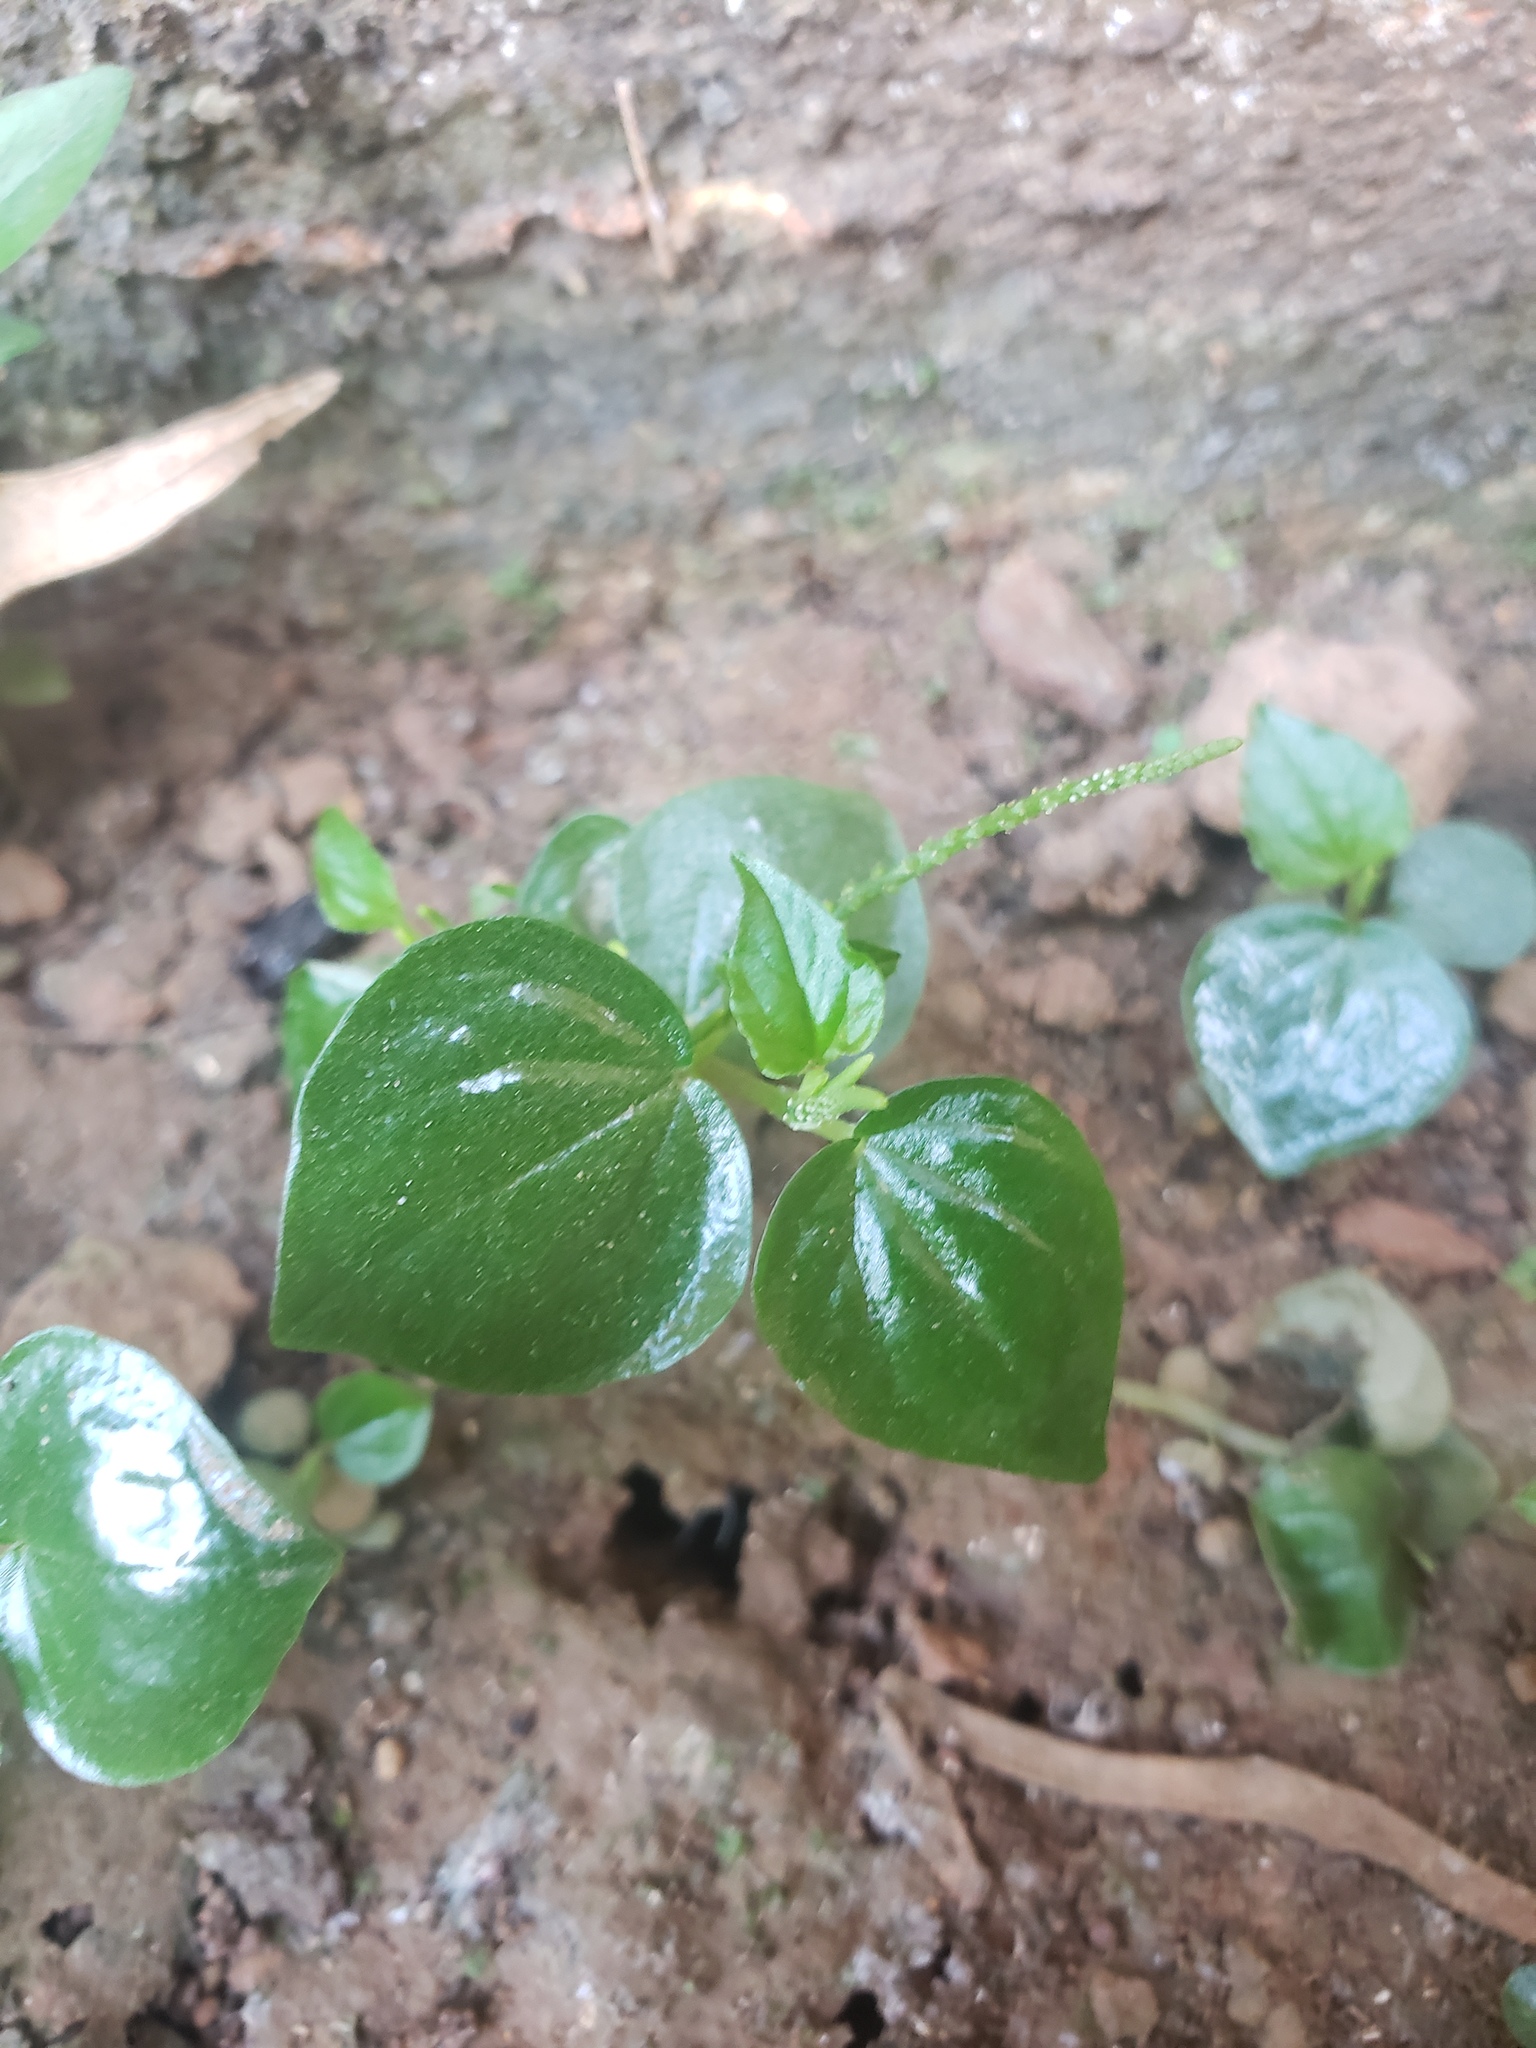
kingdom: Plantae
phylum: Tracheophyta
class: Magnoliopsida
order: Piperales
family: Piperaceae
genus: Peperomia
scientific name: Peperomia pellucida
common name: Man to man
